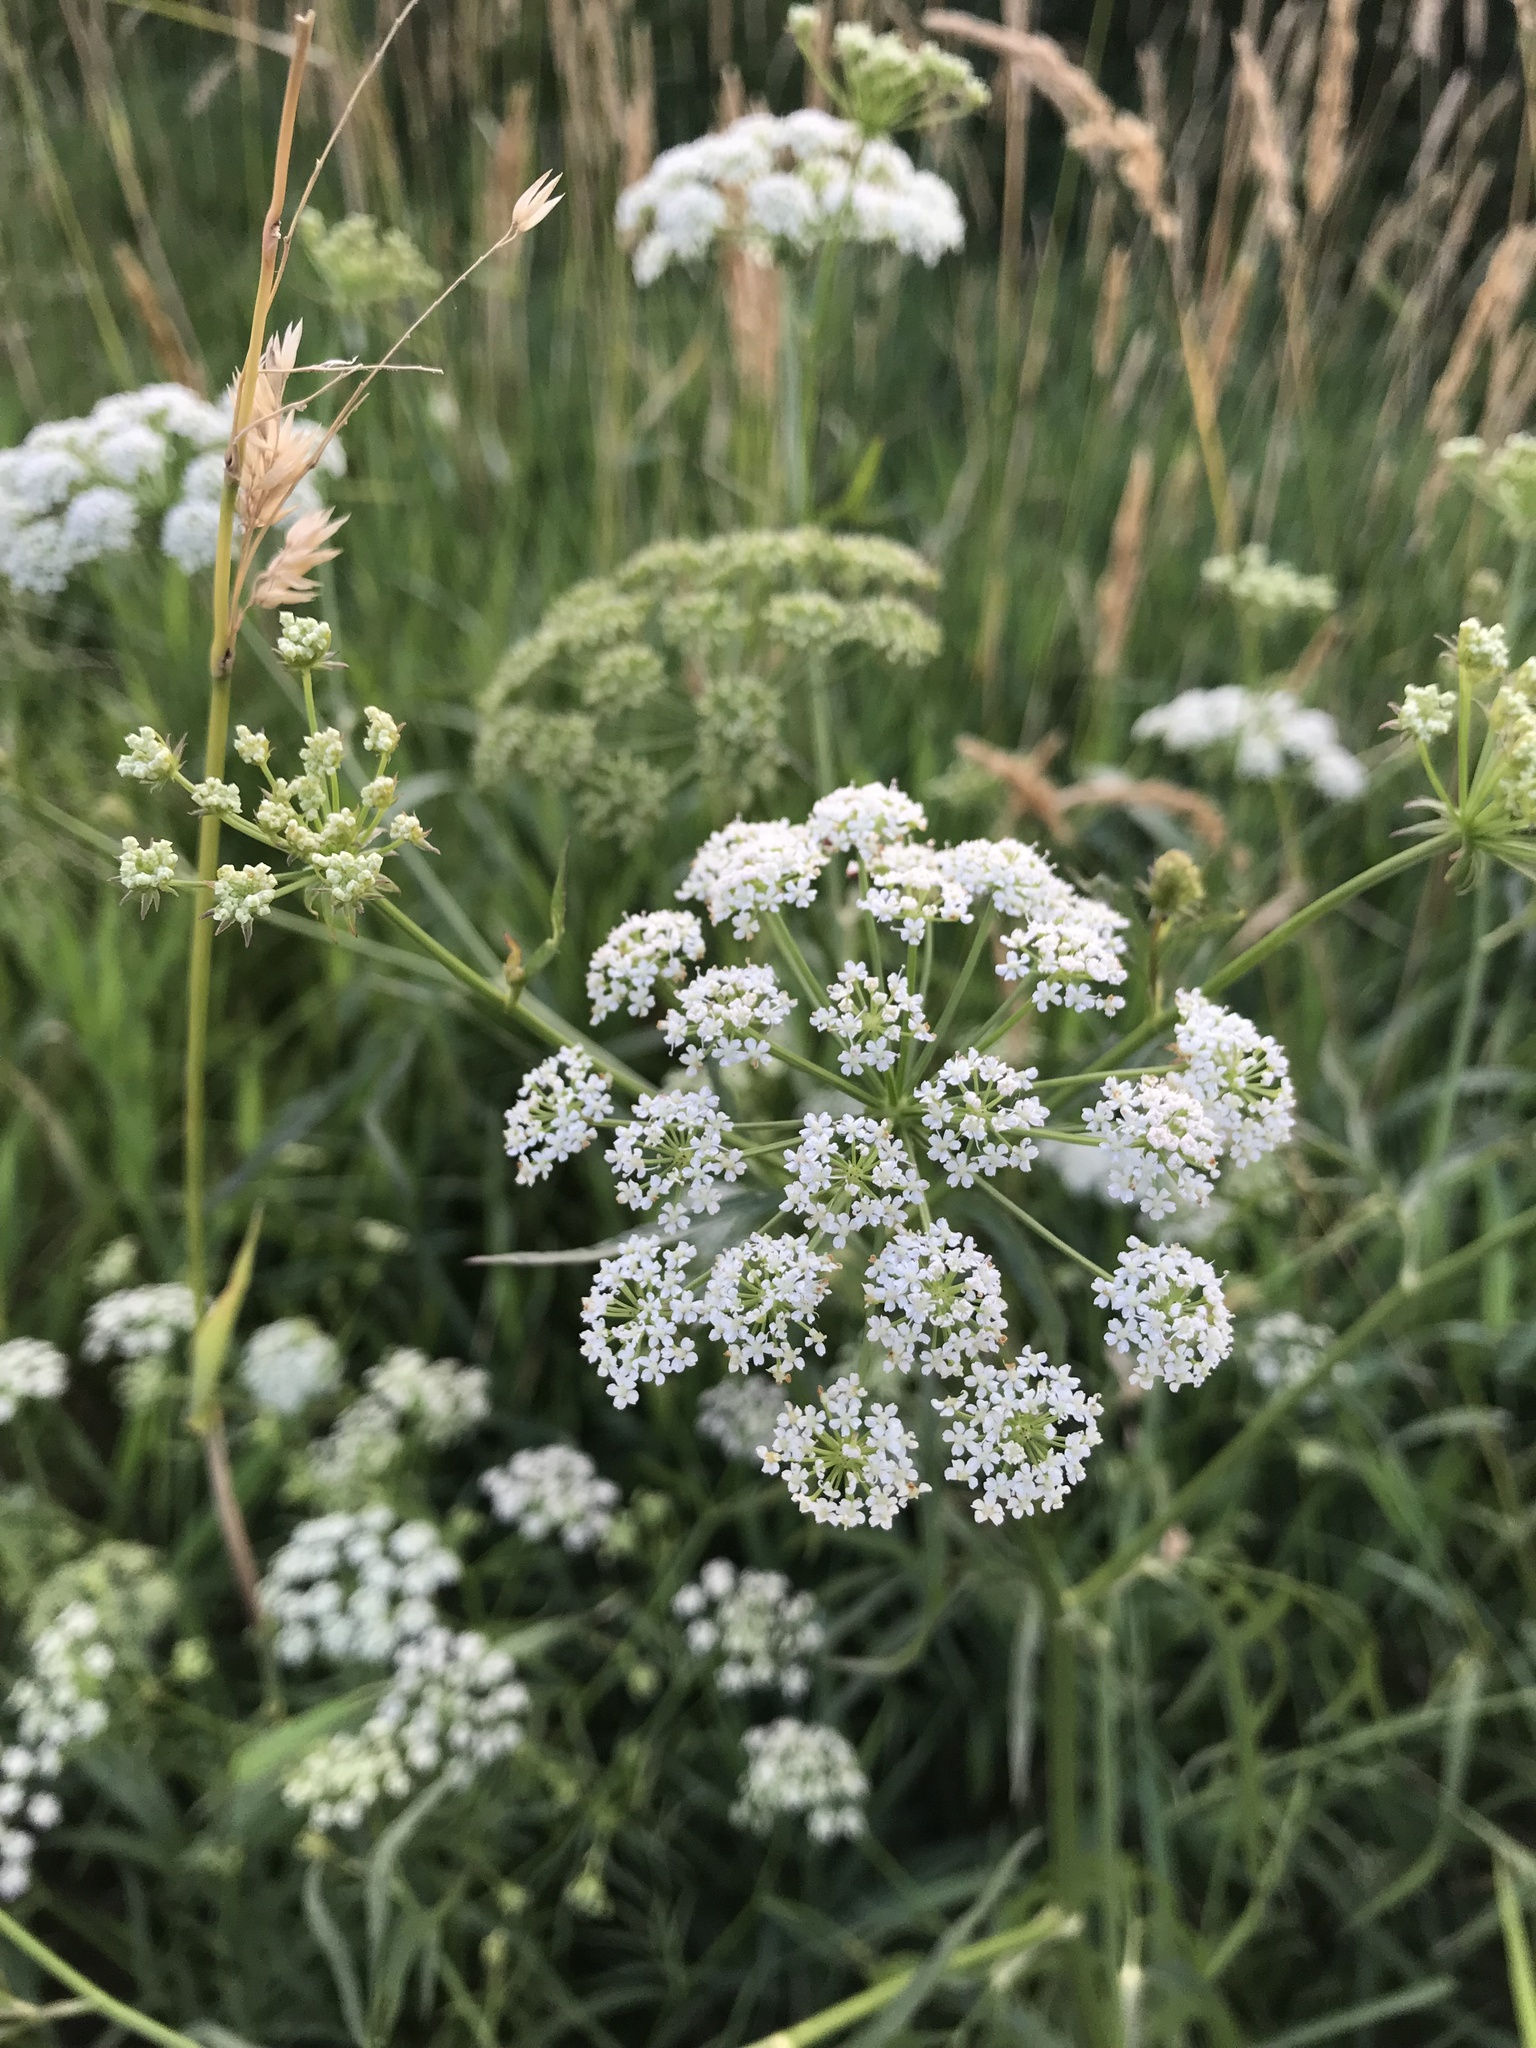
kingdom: Plantae
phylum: Tracheophyta
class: Magnoliopsida
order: Apiales
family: Apiaceae
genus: Sium
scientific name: Sium suave
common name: Hemlock water-parsnip
